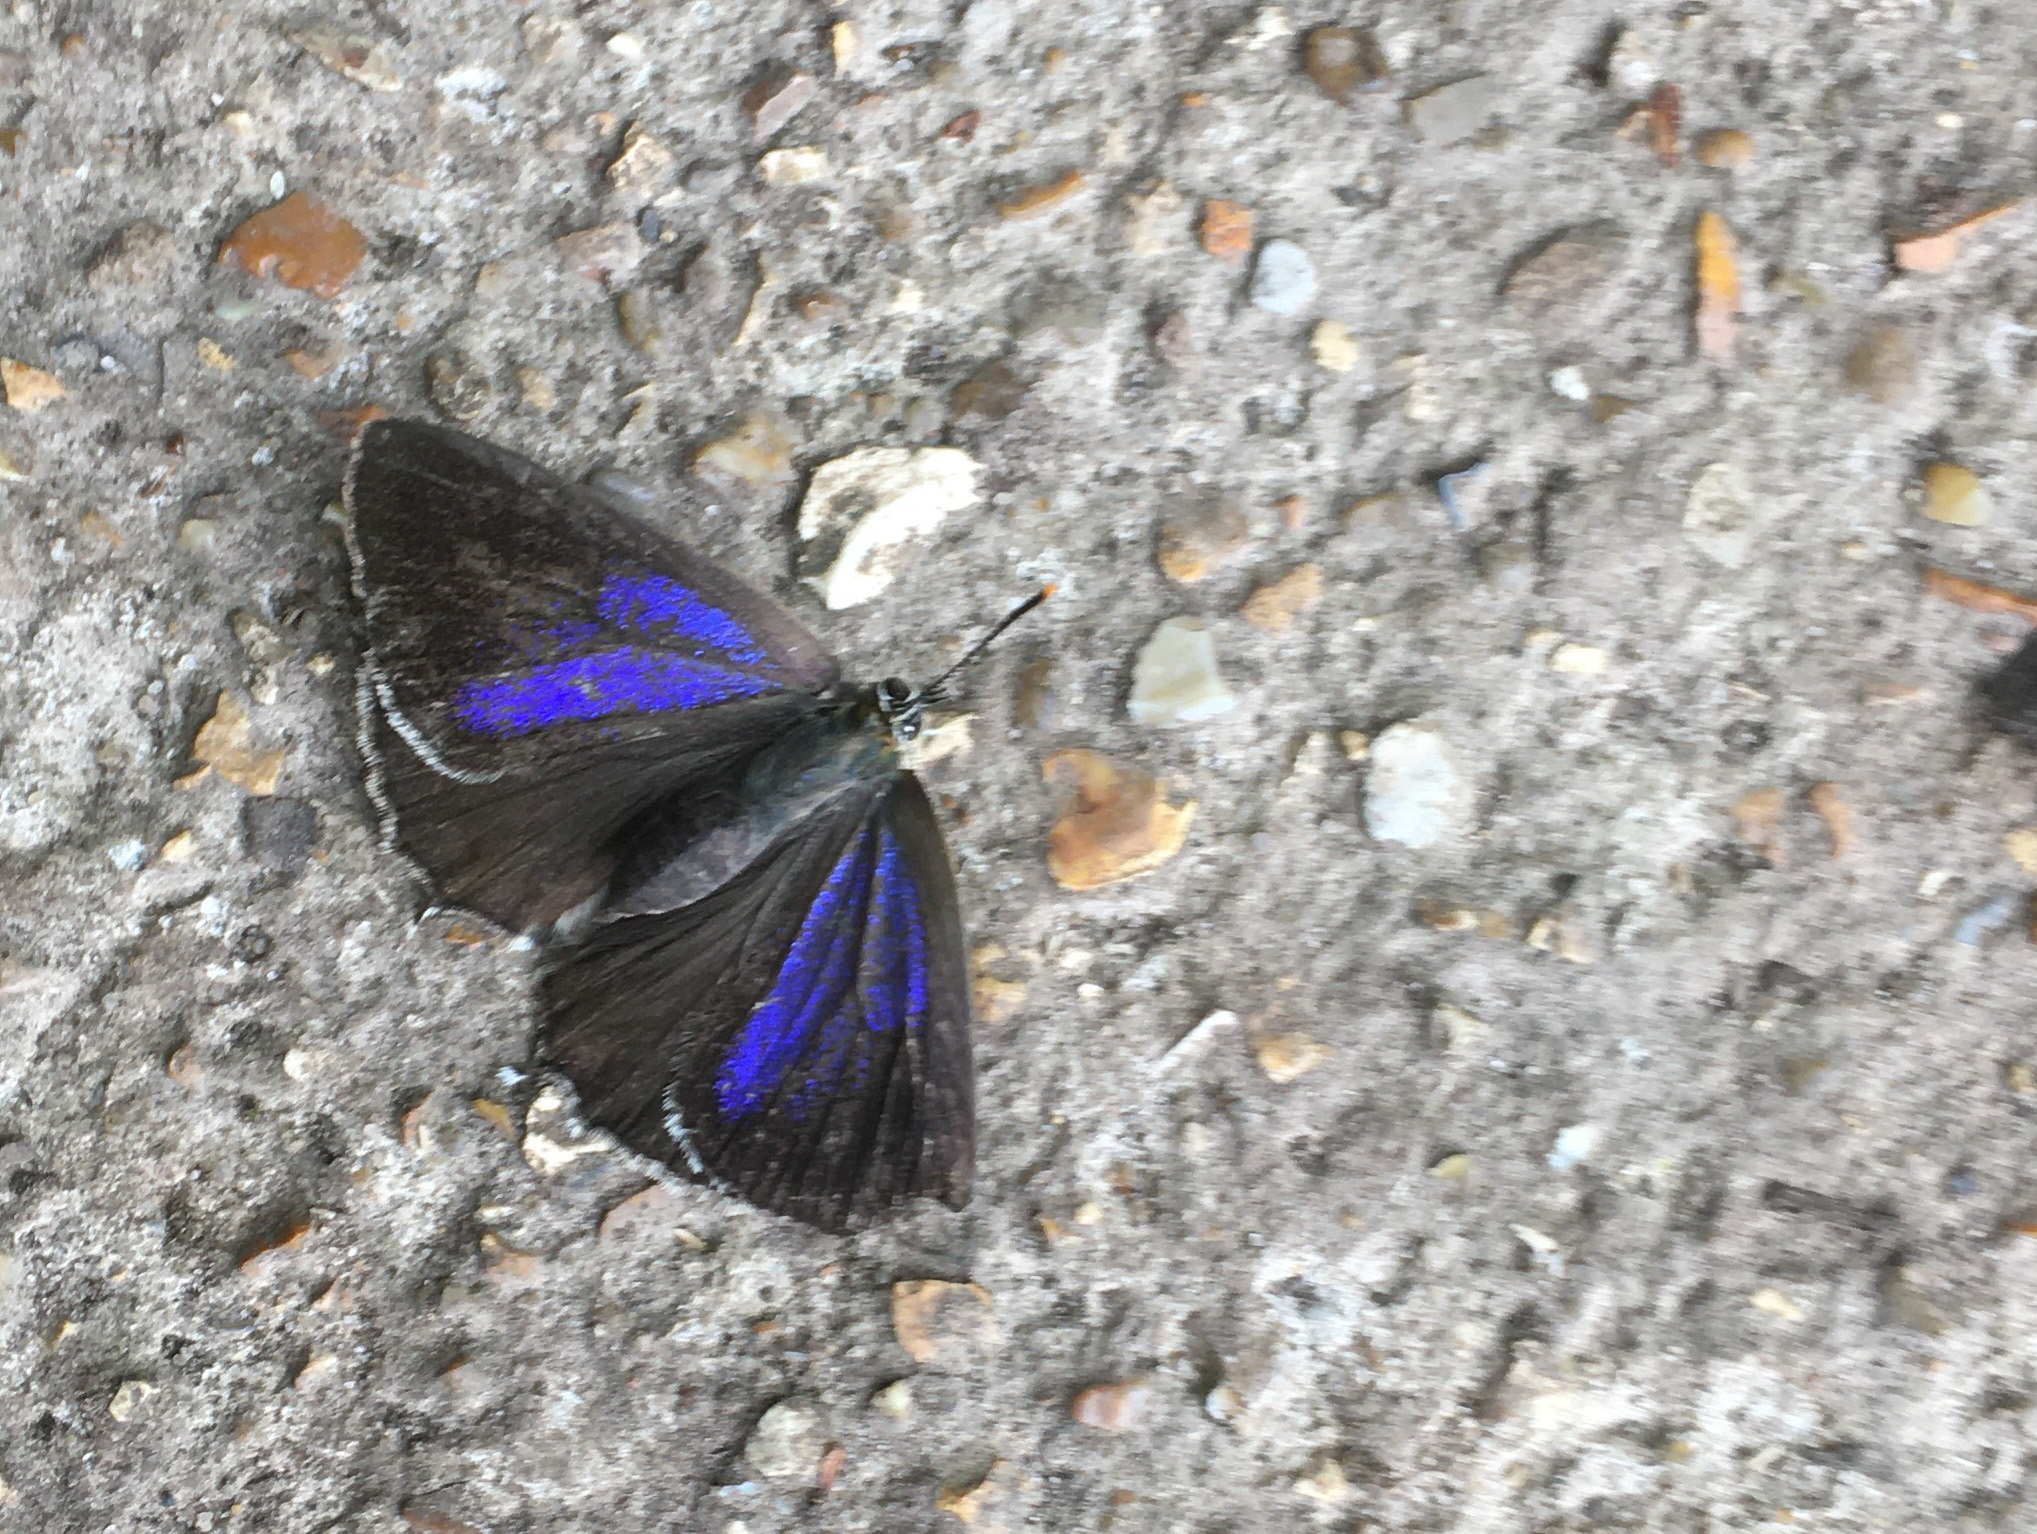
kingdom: Animalia
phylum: Arthropoda
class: Insecta
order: Lepidoptera
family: Lycaenidae
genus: Quercusia
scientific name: Quercusia quercus
